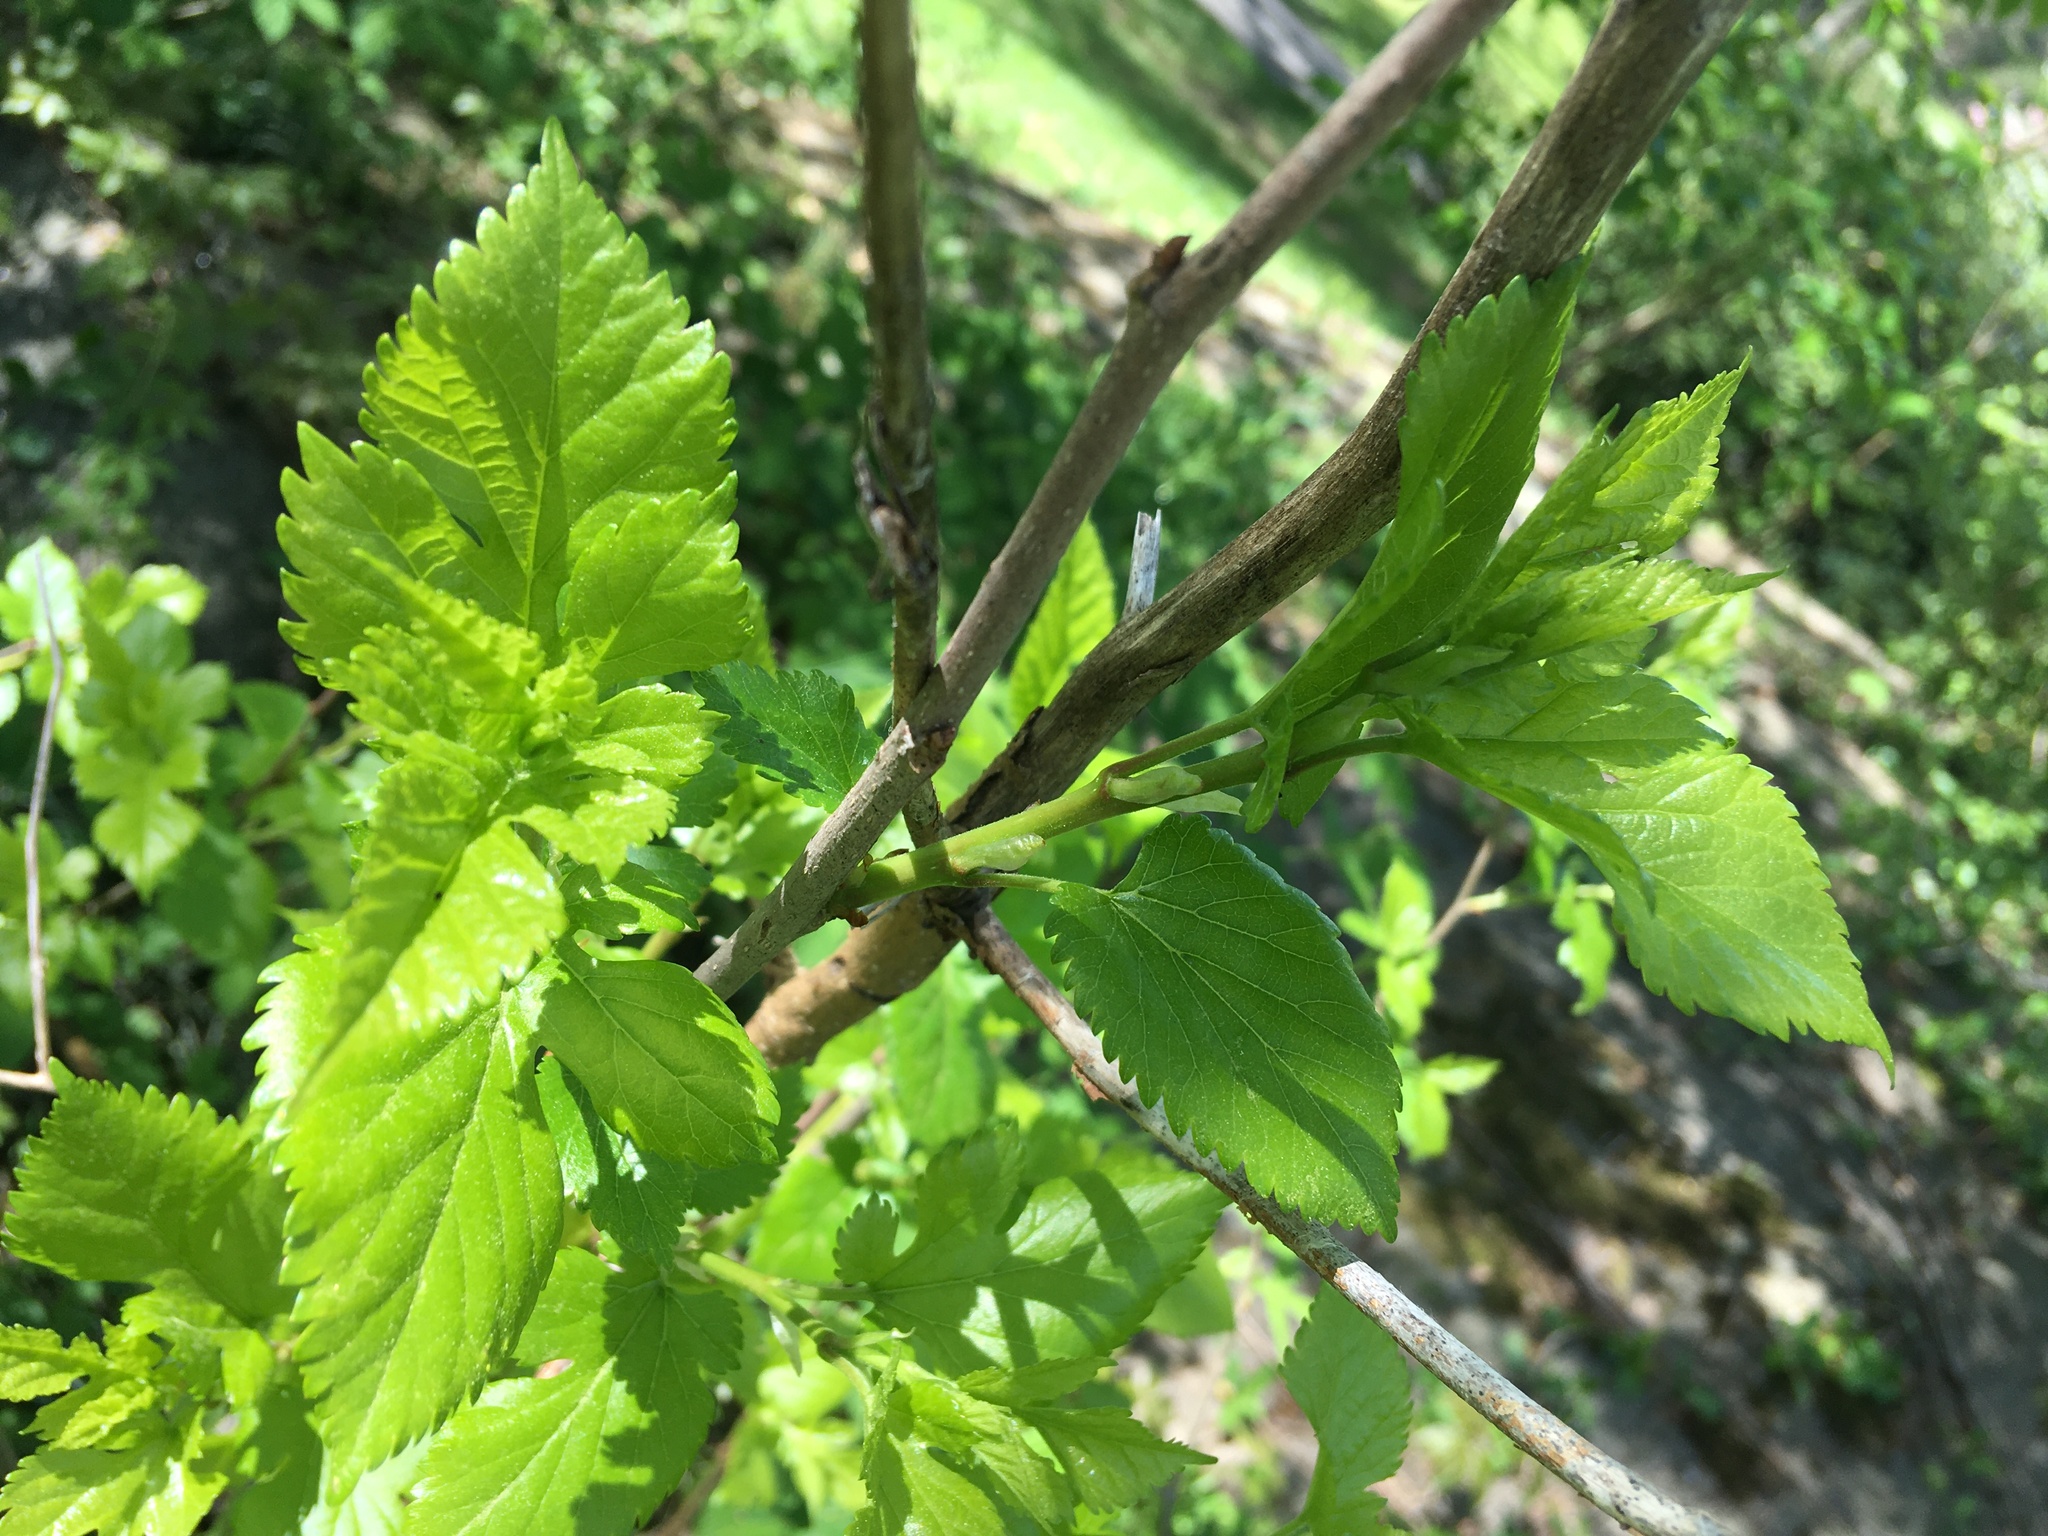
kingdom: Plantae
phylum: Tracheophyta
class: Magnoliopsida
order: Rosales
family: Moraceae
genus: Morus
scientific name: Morus alba
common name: White mulberry
